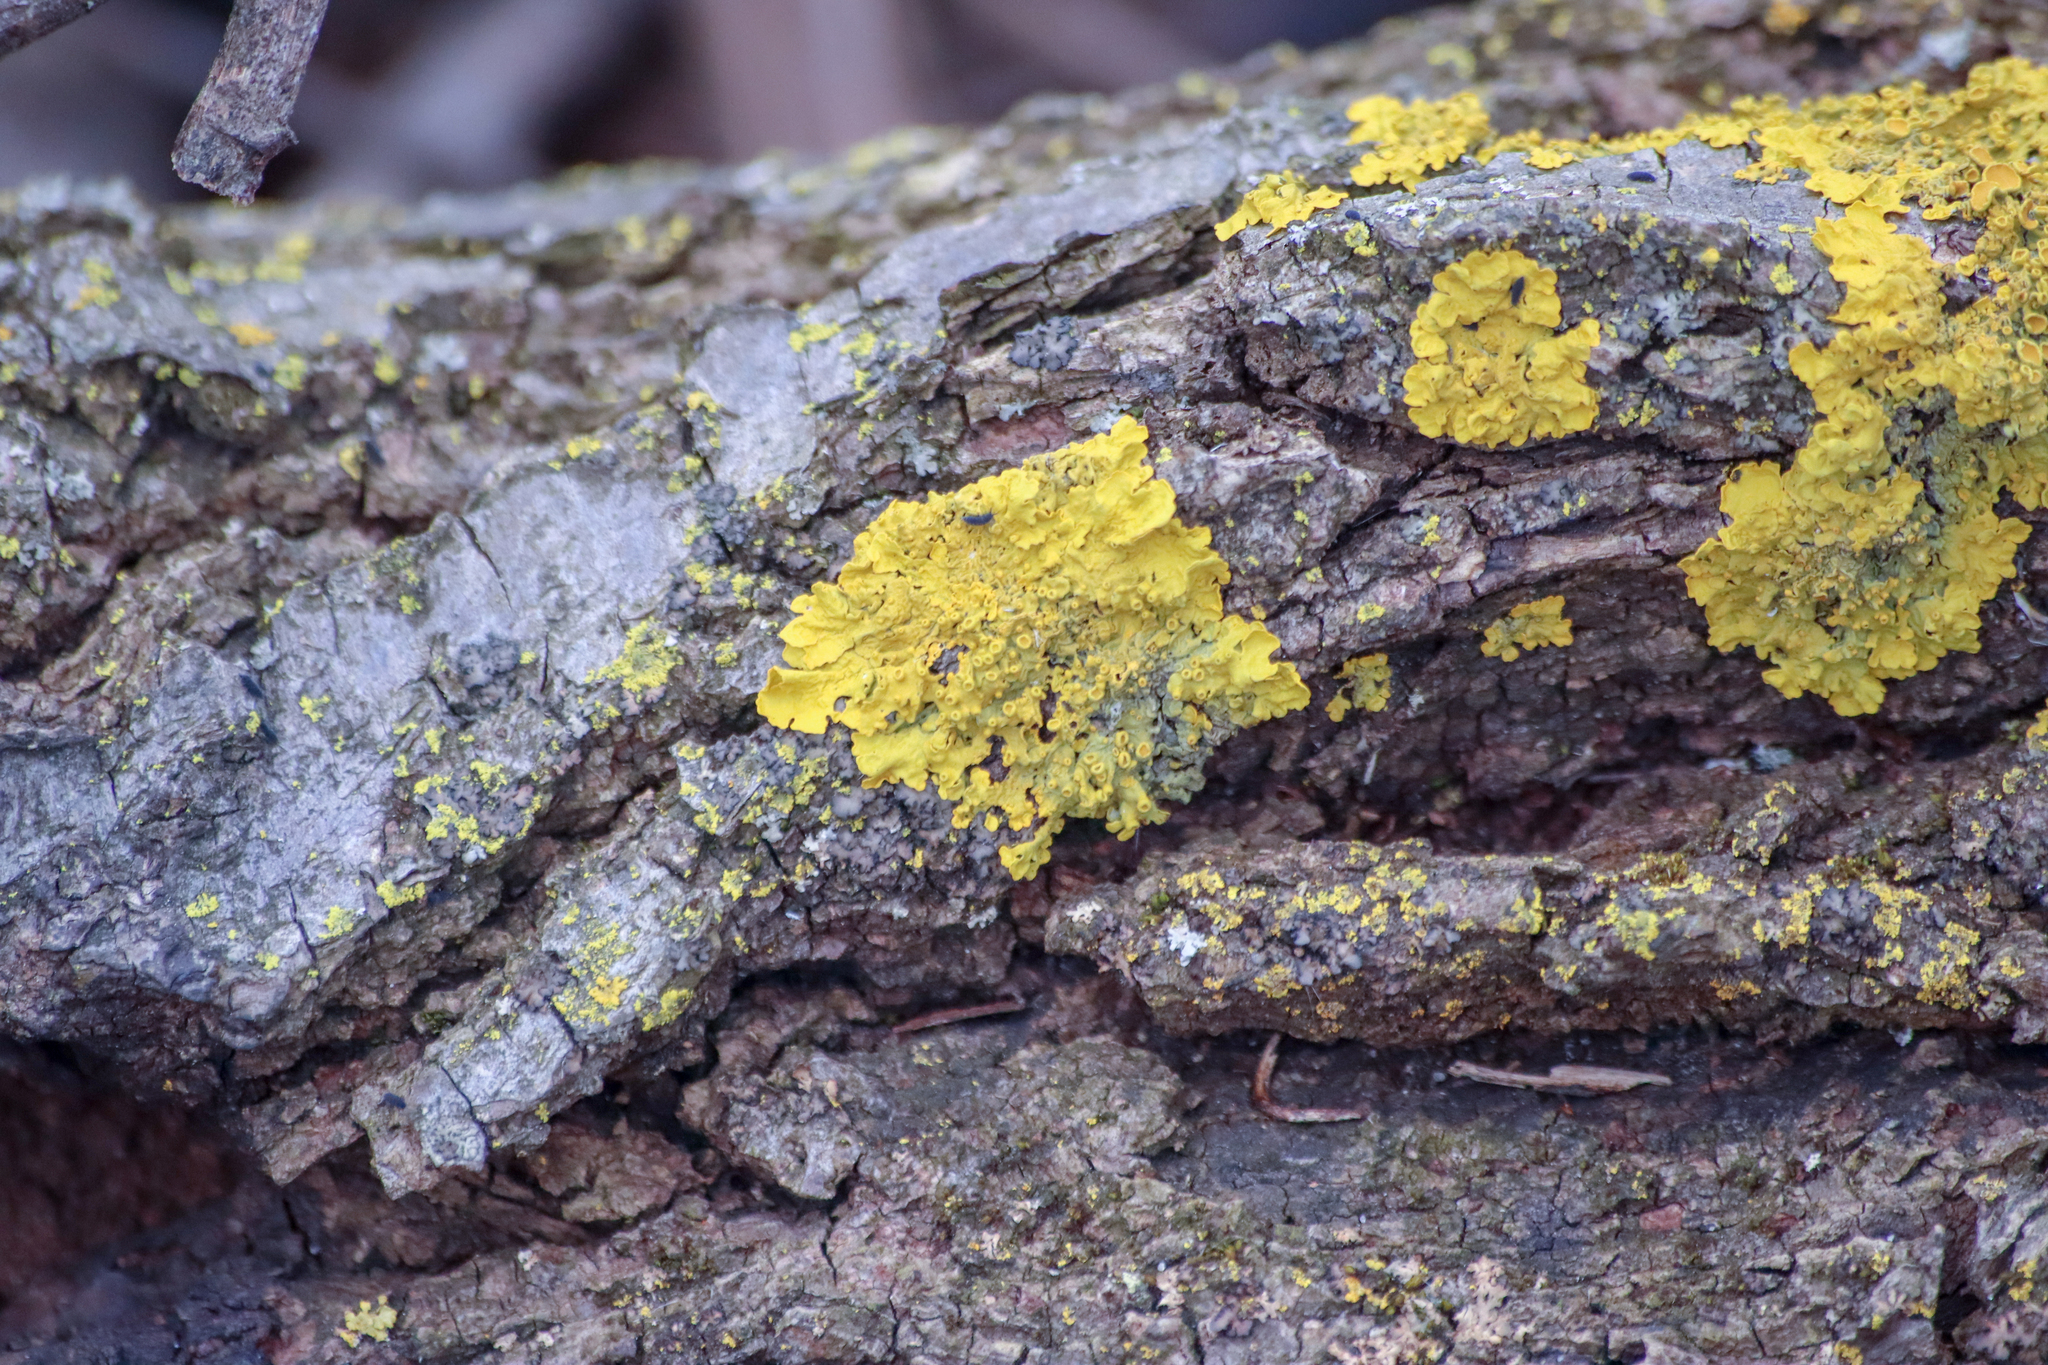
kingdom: Fungi
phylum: Ascomycota
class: Lecanoromycetes
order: Teloschistales
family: Teloschistaceae
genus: Xanthoria
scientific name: Xanthoria parietina
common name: Common orange lichen
